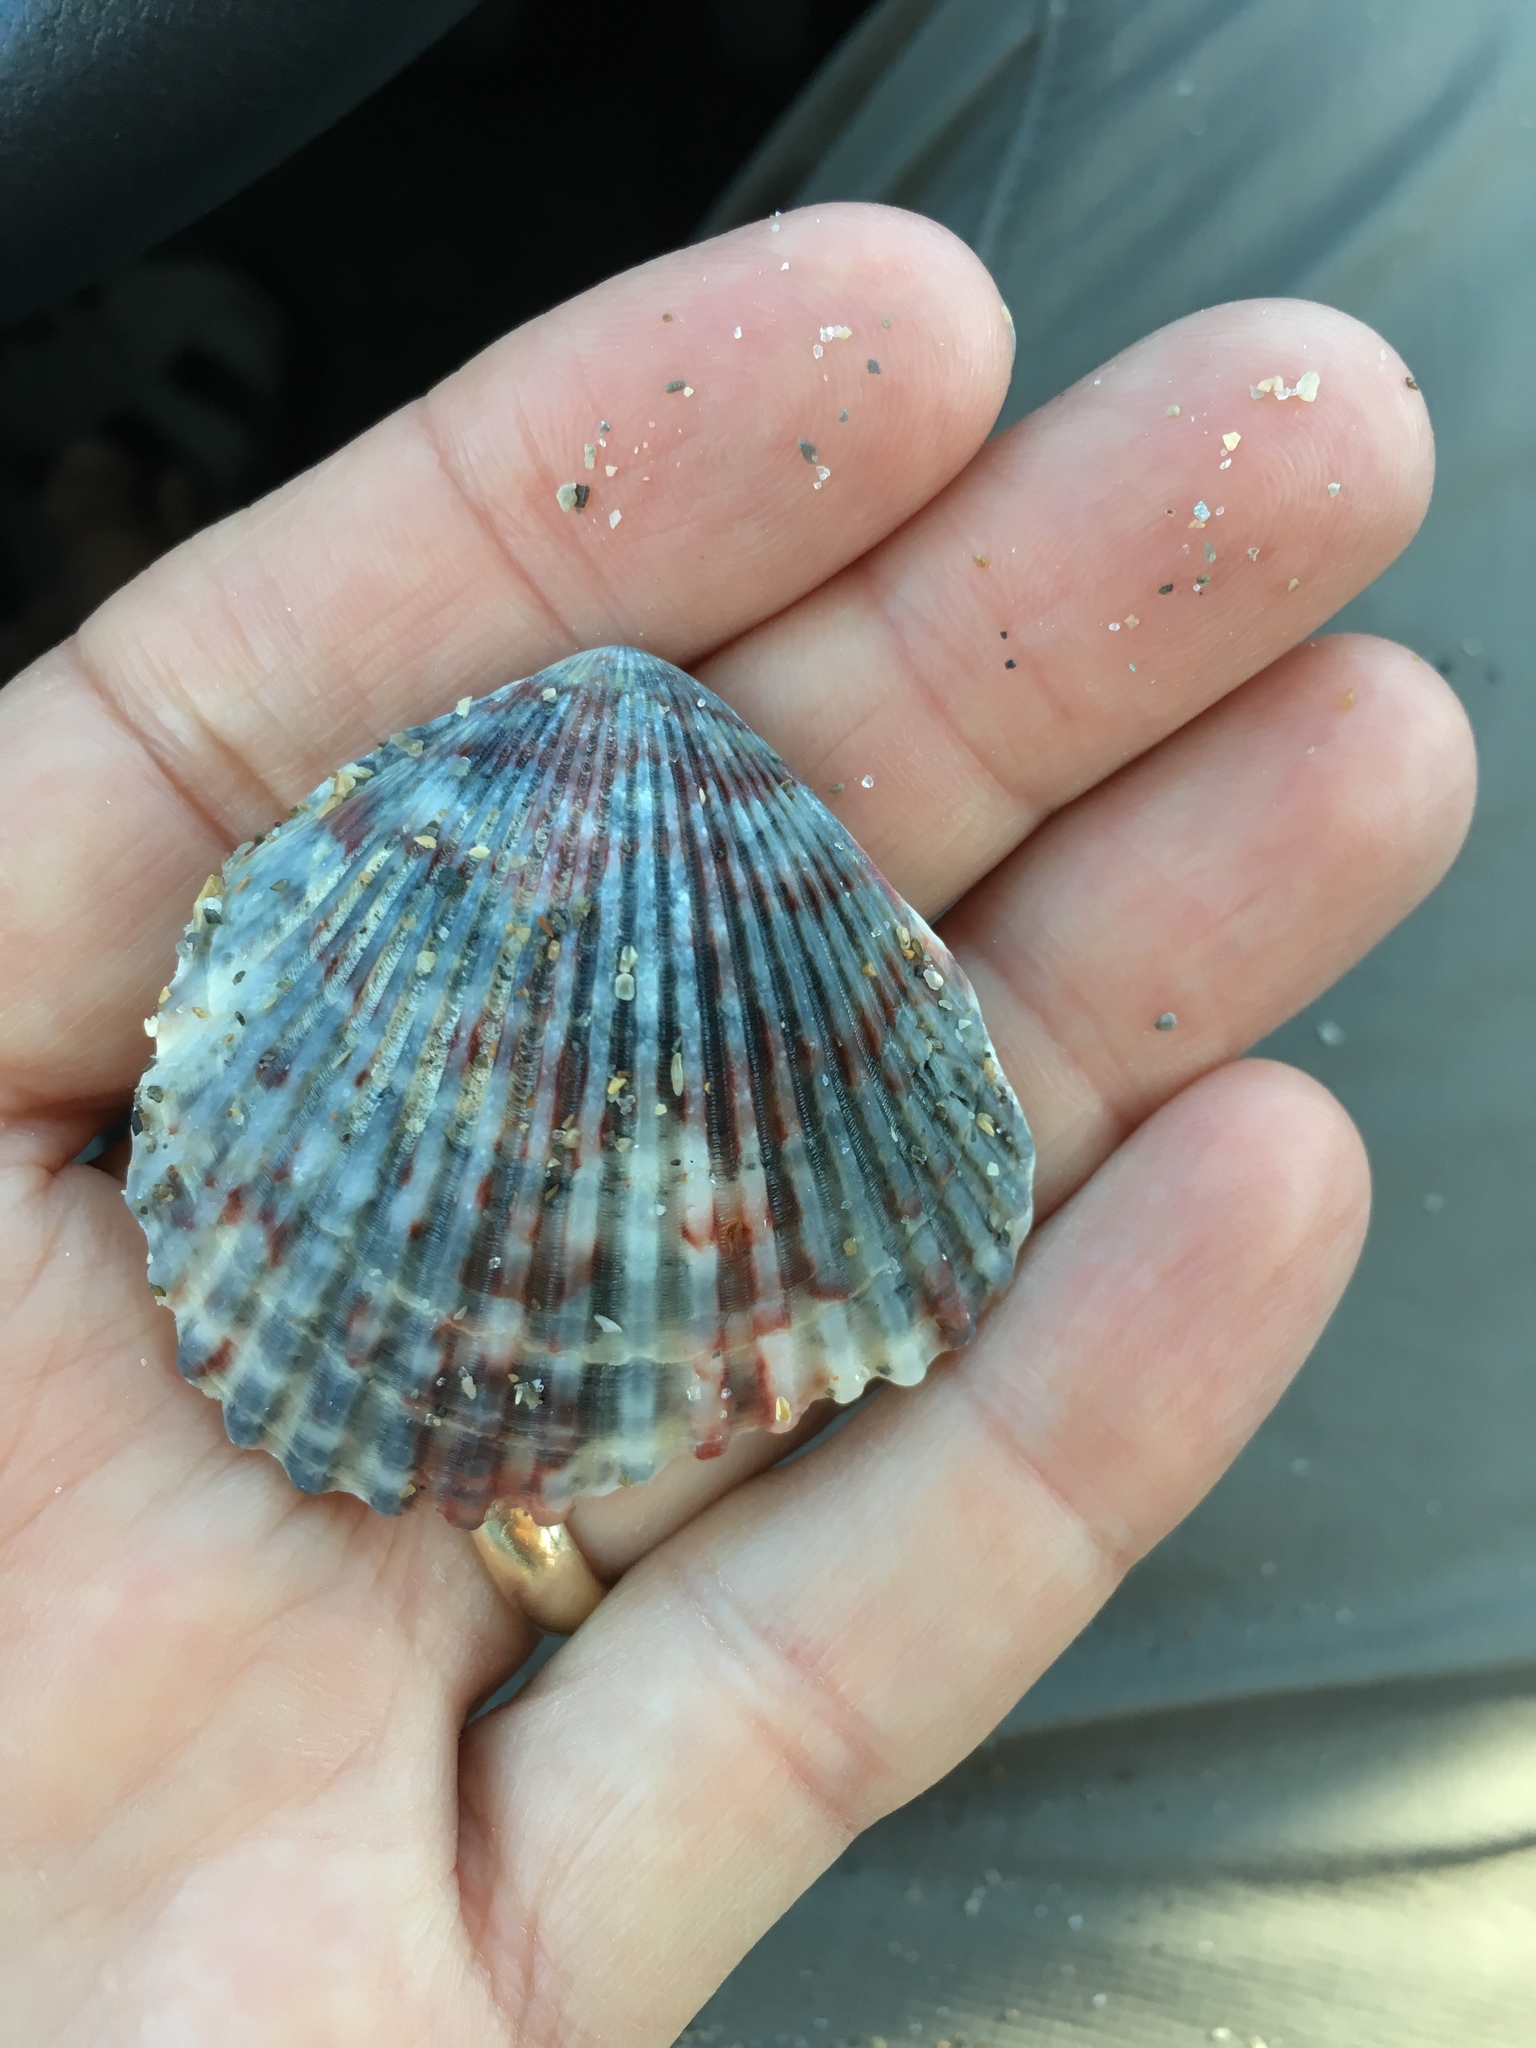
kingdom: Animalia
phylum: Mollusca
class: Bivalvia
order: Pectinida
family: Pectinidae
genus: Argopecten
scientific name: Argopecten gibbus
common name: Atlantic calico scallop
